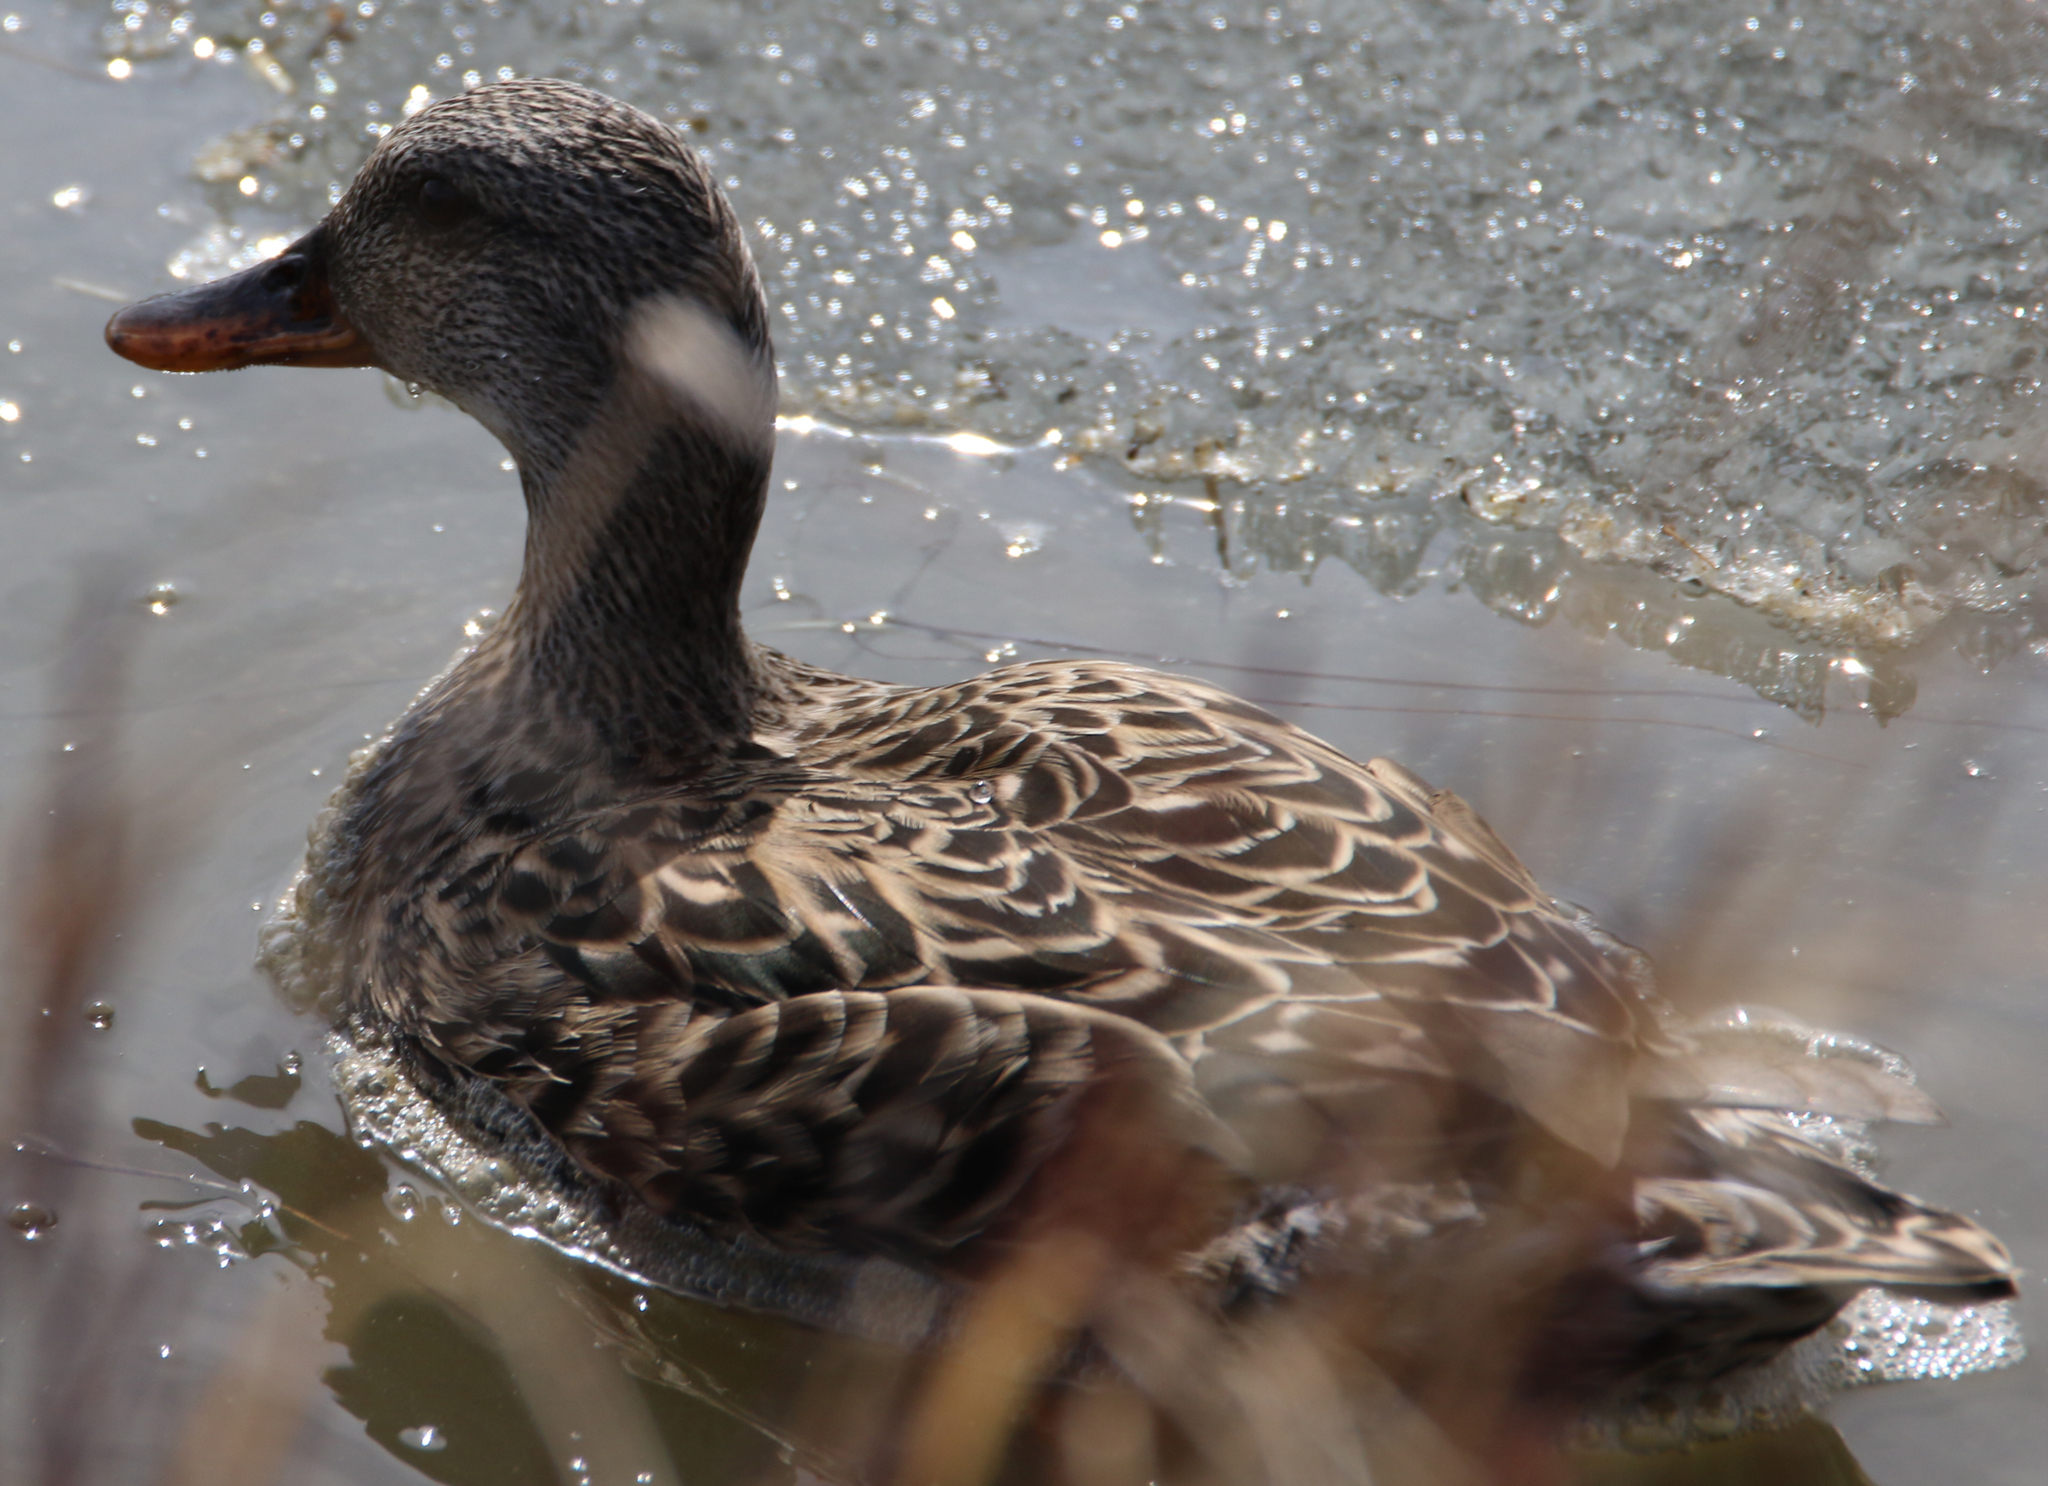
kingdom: Animalia
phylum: Chordata
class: Aves
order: Anseriformes
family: Anatidae
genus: Mareca
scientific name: Mareca strepera
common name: Gadwall
